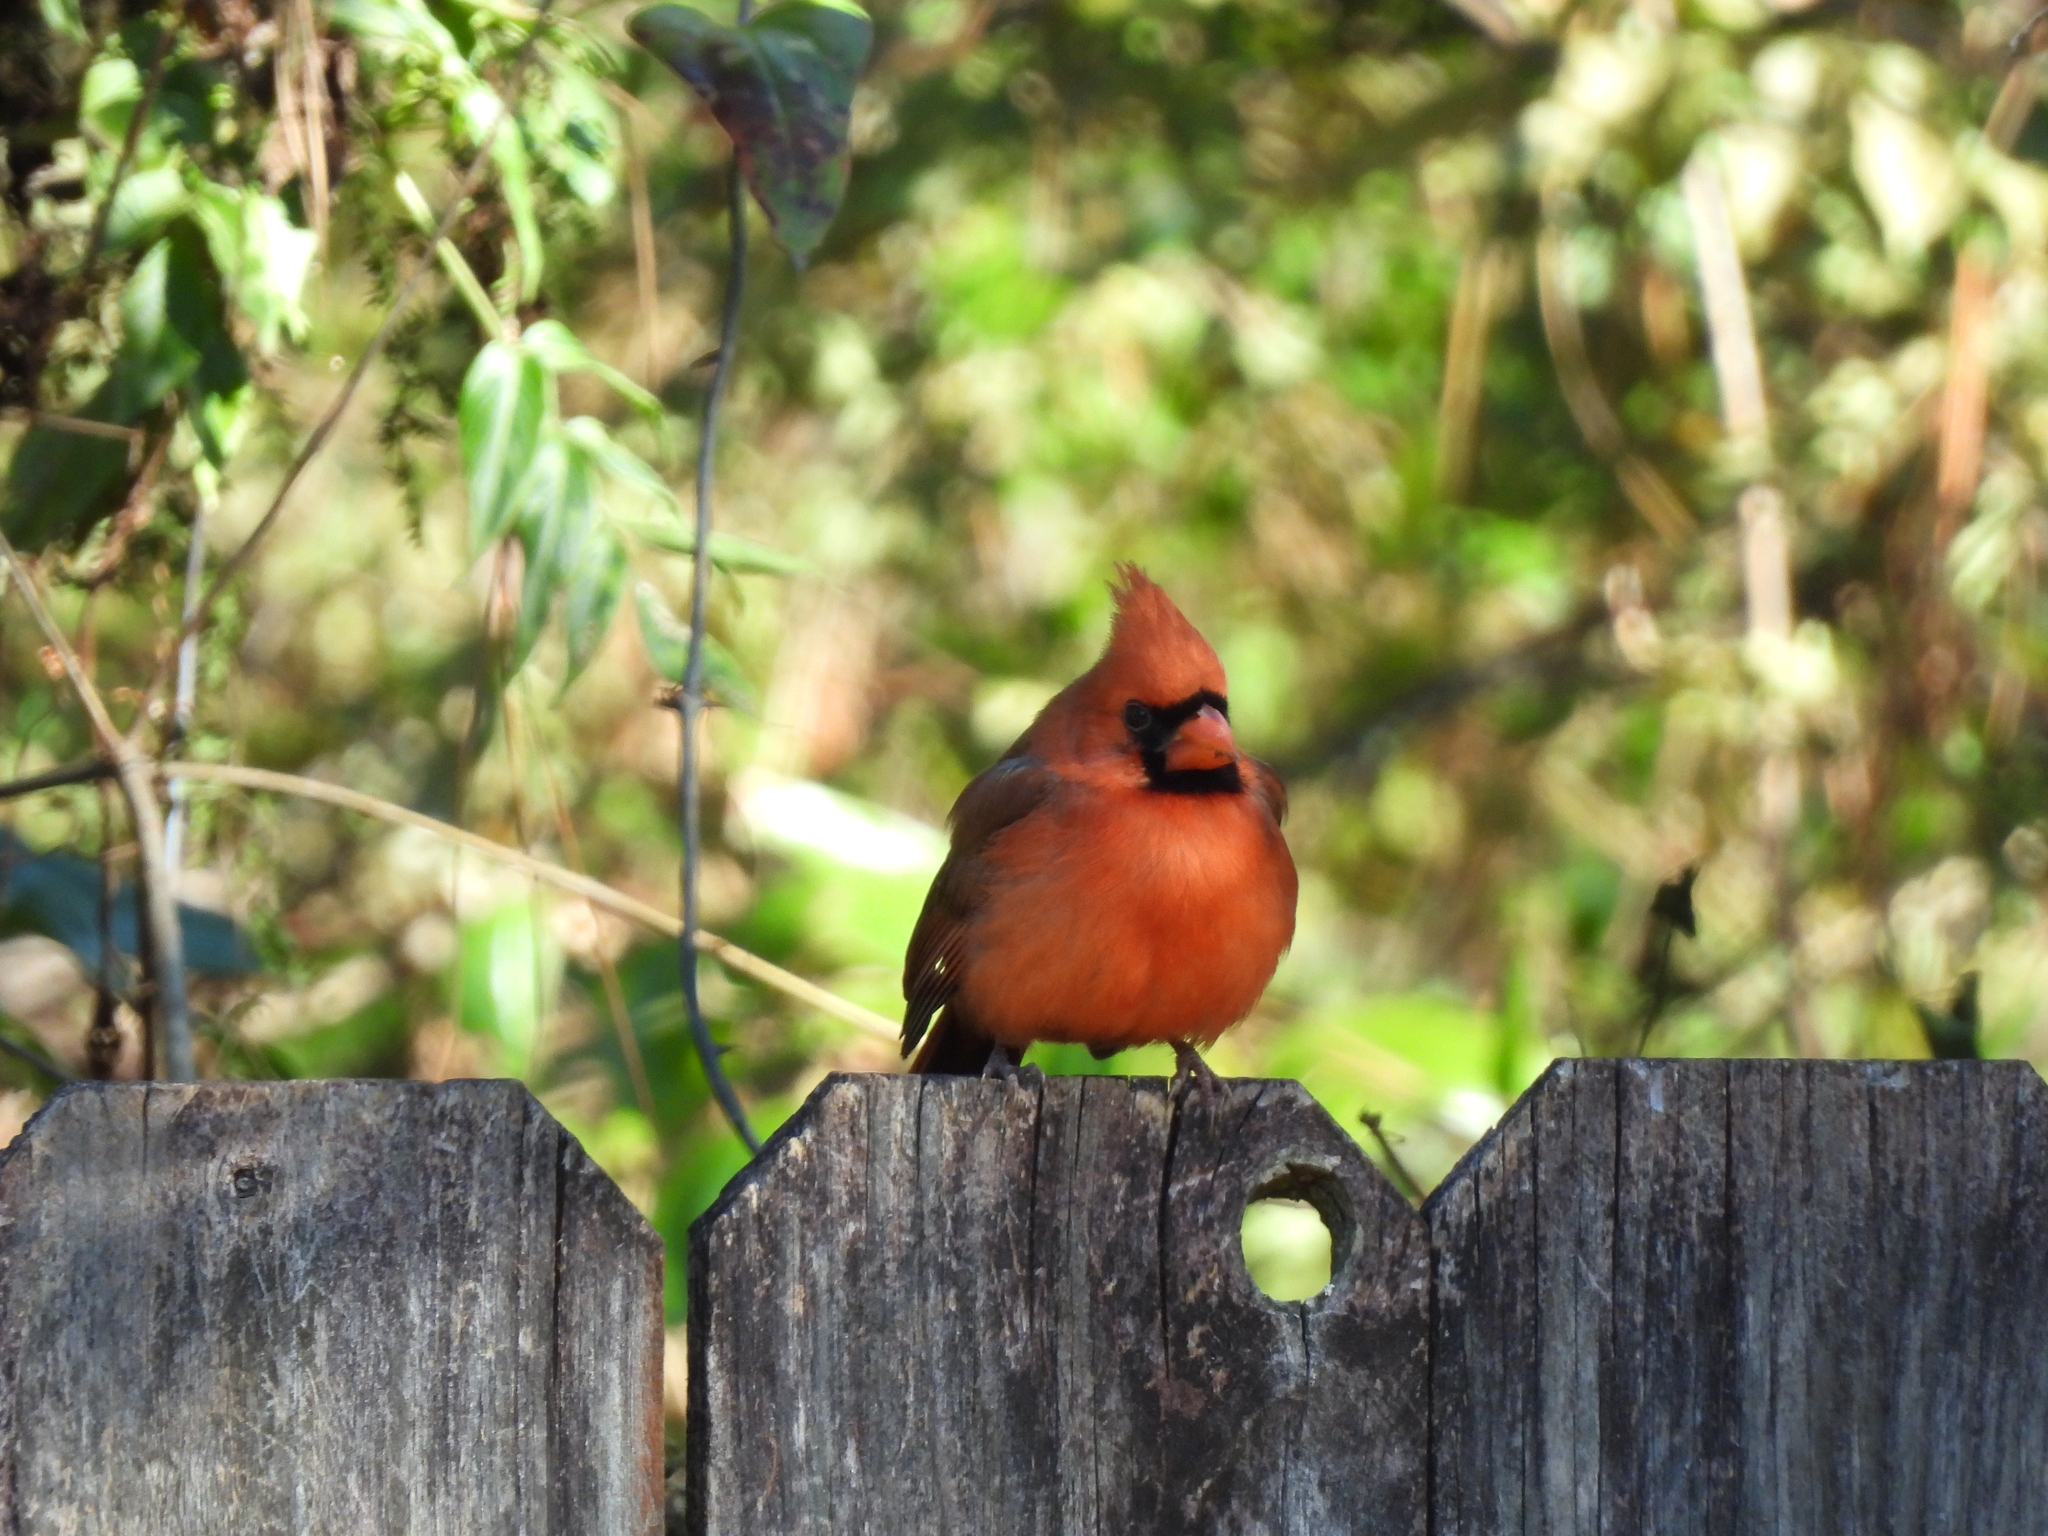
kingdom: Animalia
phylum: Chordata
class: Aves
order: Passeriformes
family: Cardinalidae
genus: Cardinalis
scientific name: Cardinalis cardinalis
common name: Northern cardinal
